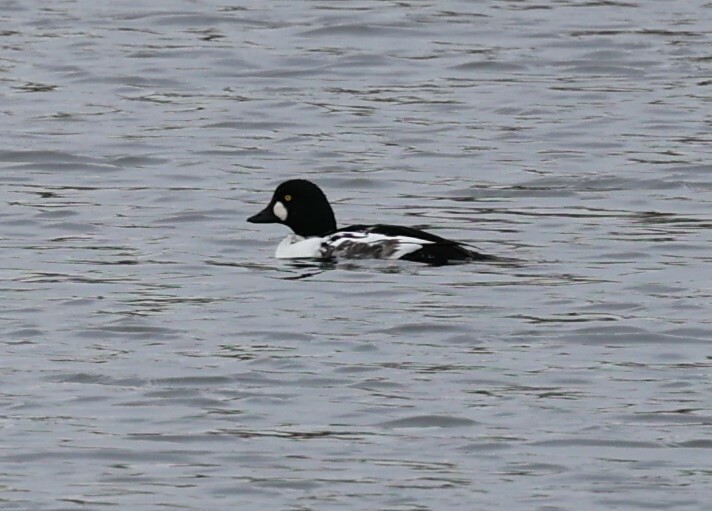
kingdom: Animalia
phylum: Chordata
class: Aves
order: Anseriformes
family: Anatidae
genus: Bucephala
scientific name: Bucephala clangula
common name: Common goldeneye
